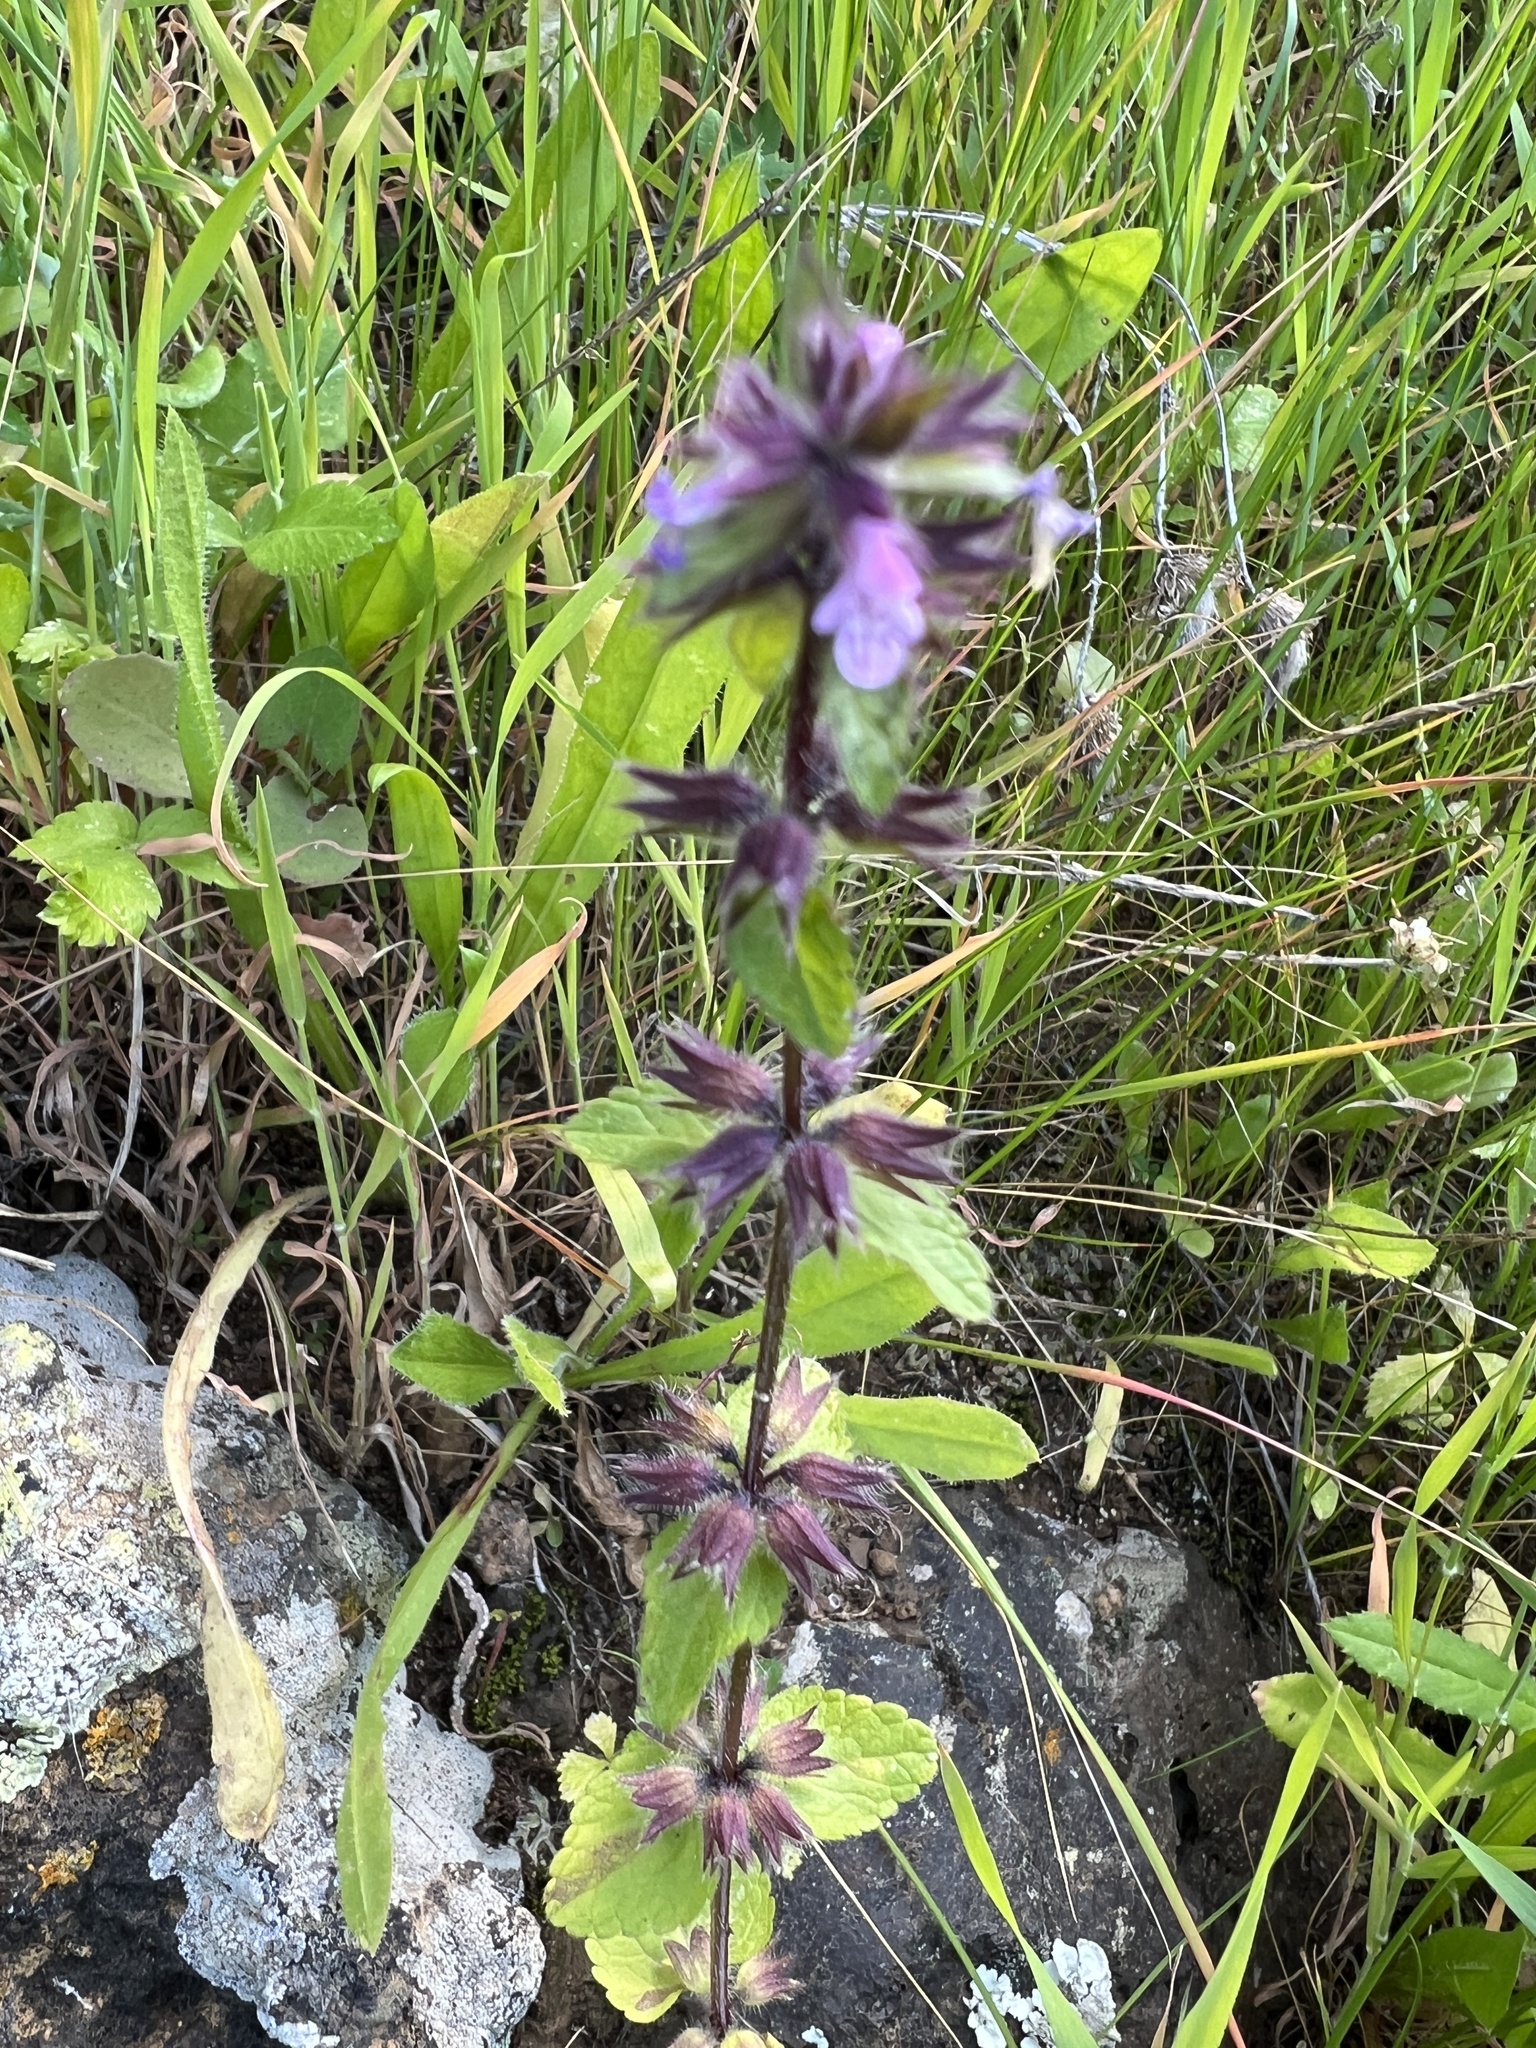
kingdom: Plantae
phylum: Tracheophyta
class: Magnoliopsida
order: Lamiales
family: Lamiaceae
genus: Stachys
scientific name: Stachys arvensis
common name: Field woundwort
